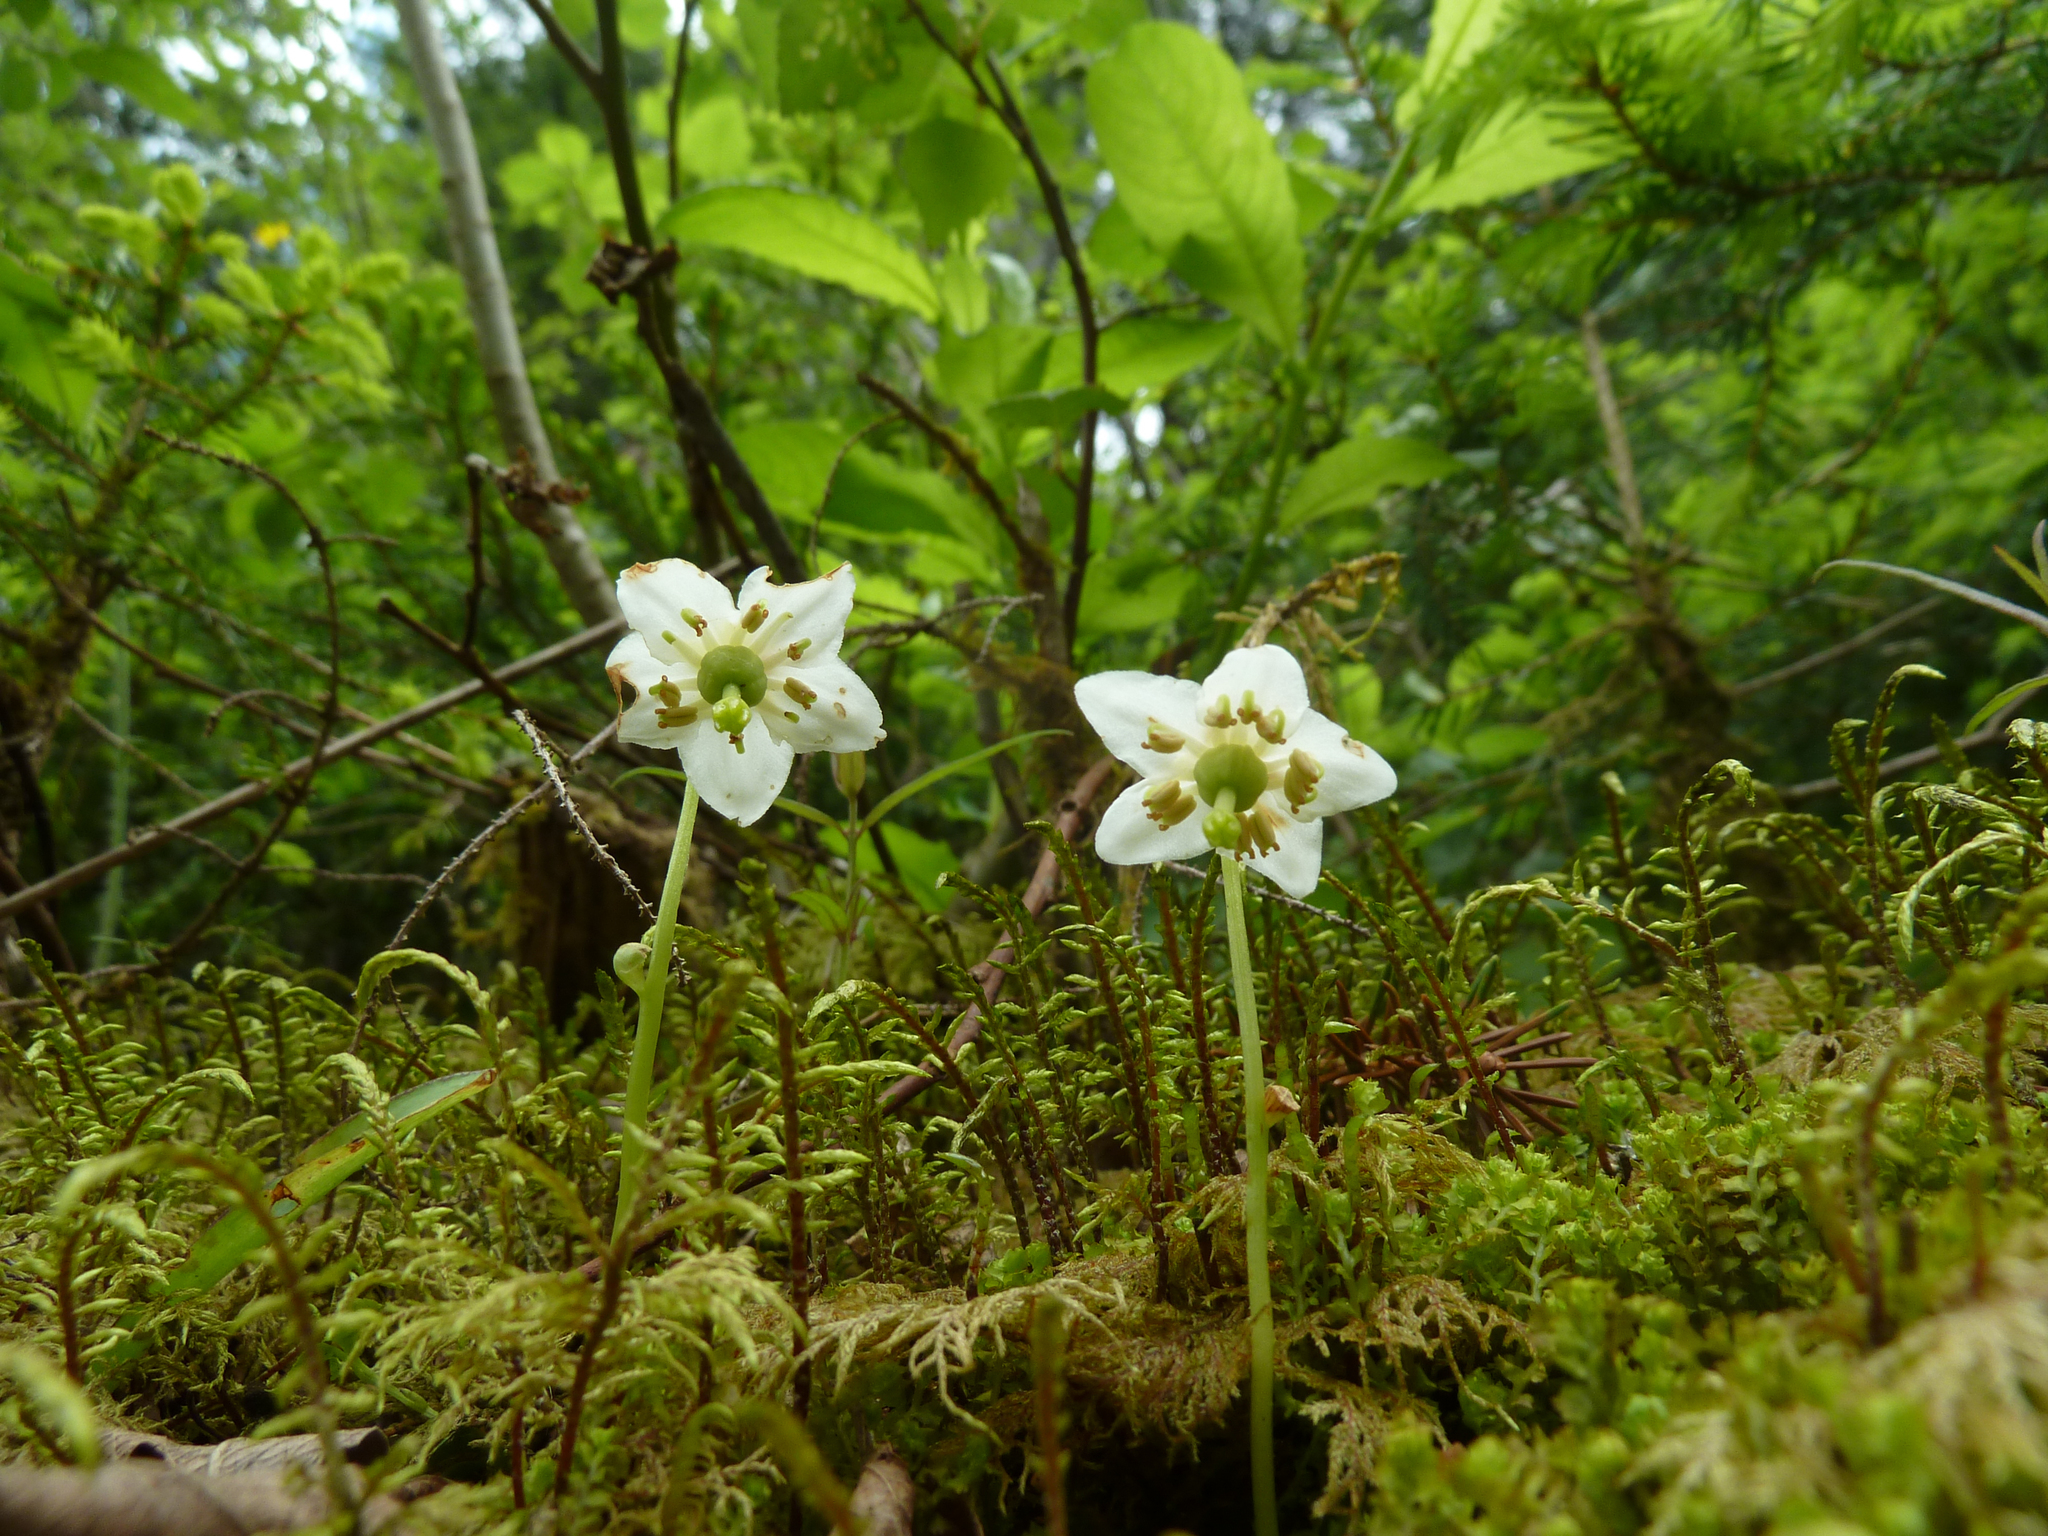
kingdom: Plantae
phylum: Tracheophyta
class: Magnoliopsida
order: Ericales
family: Ericaceae
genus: Moneses
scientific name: Moneses uniflora
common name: One-flowered wintergreen
